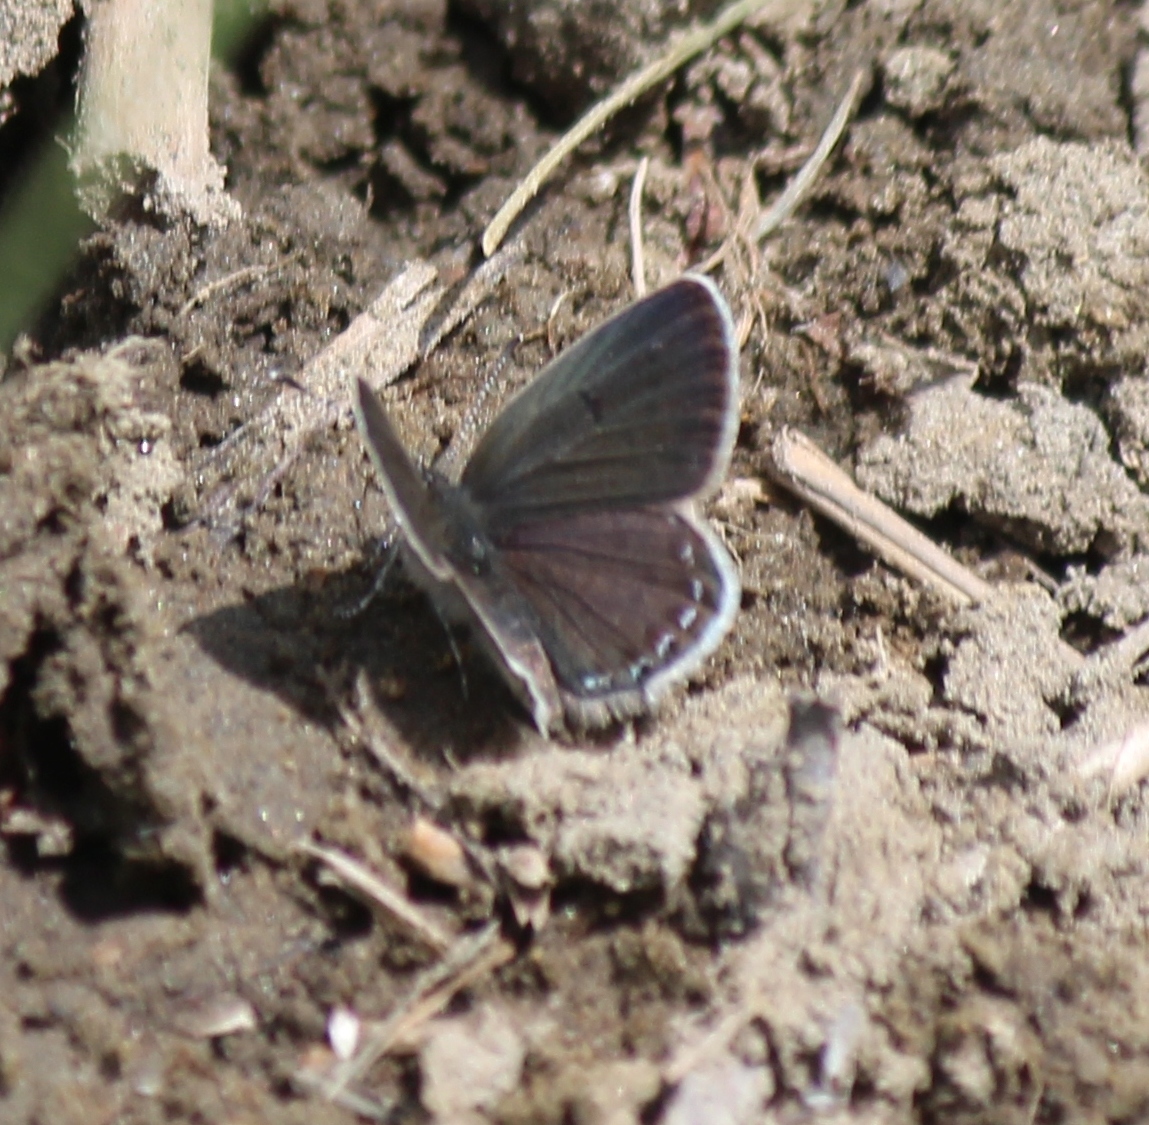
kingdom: Animalia
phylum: Arthropoda
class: Insecta
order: Lepidoptera
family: Lycaenidae
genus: Tongeia
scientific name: Tongeia fischeri
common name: Fischer's blue
